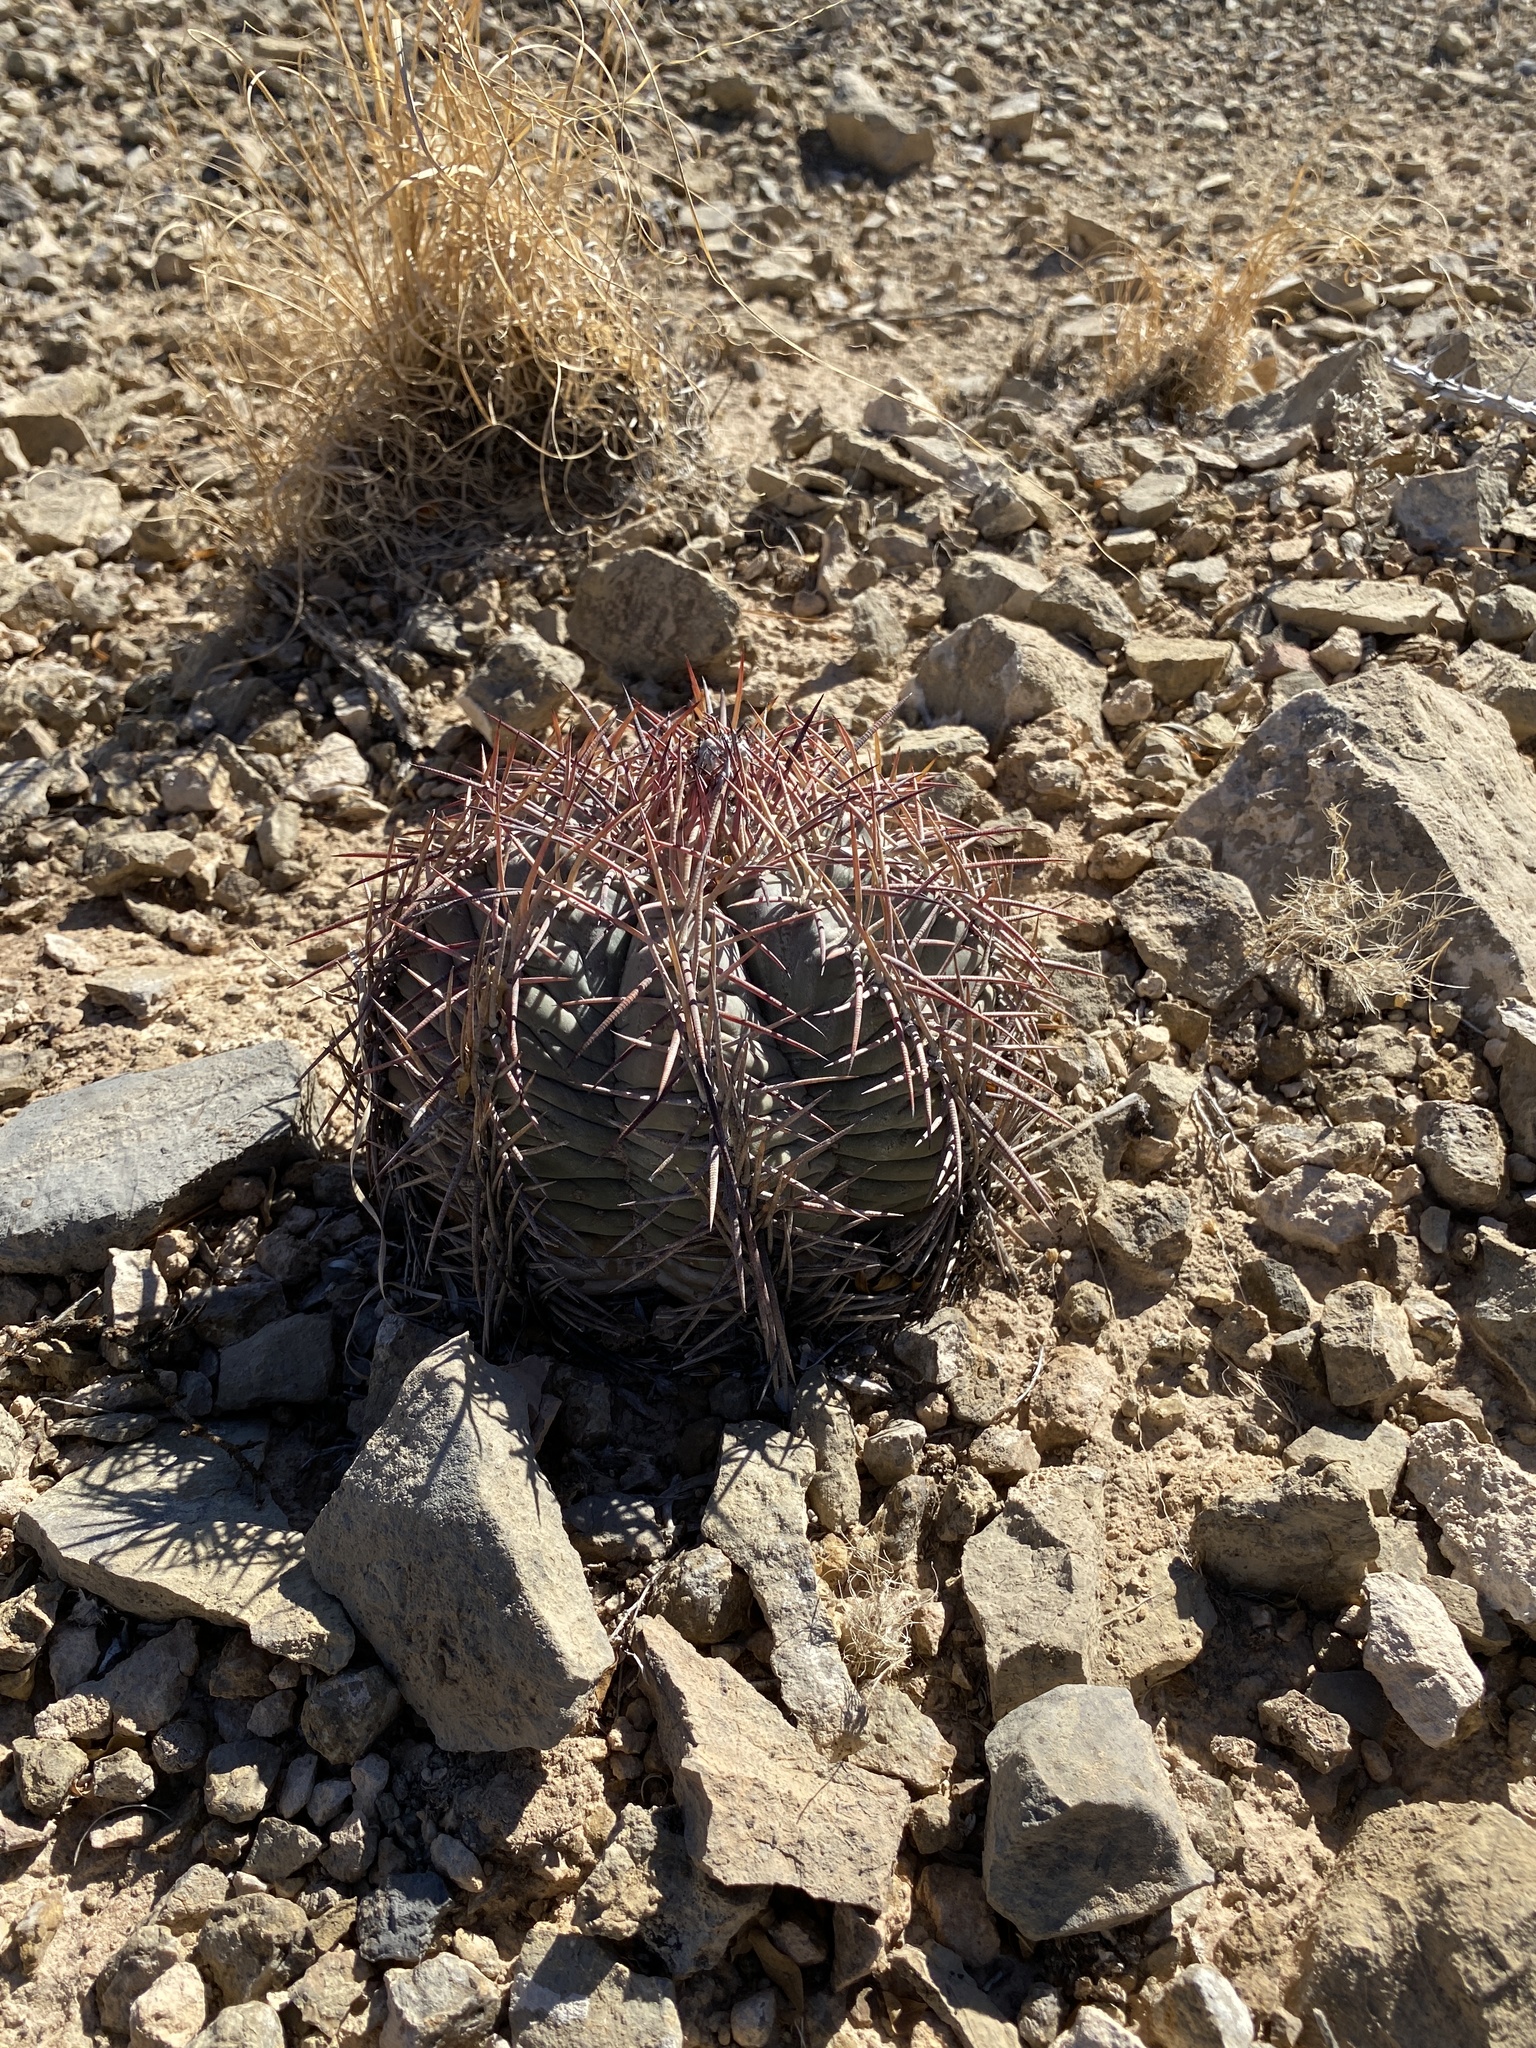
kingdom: Plantae
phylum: Tracheophyta
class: Magnoliopsida
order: Caryophyllales
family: Cactaceae
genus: Echinocactus
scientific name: Echinocactus horizonthalonius
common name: Devilshead
